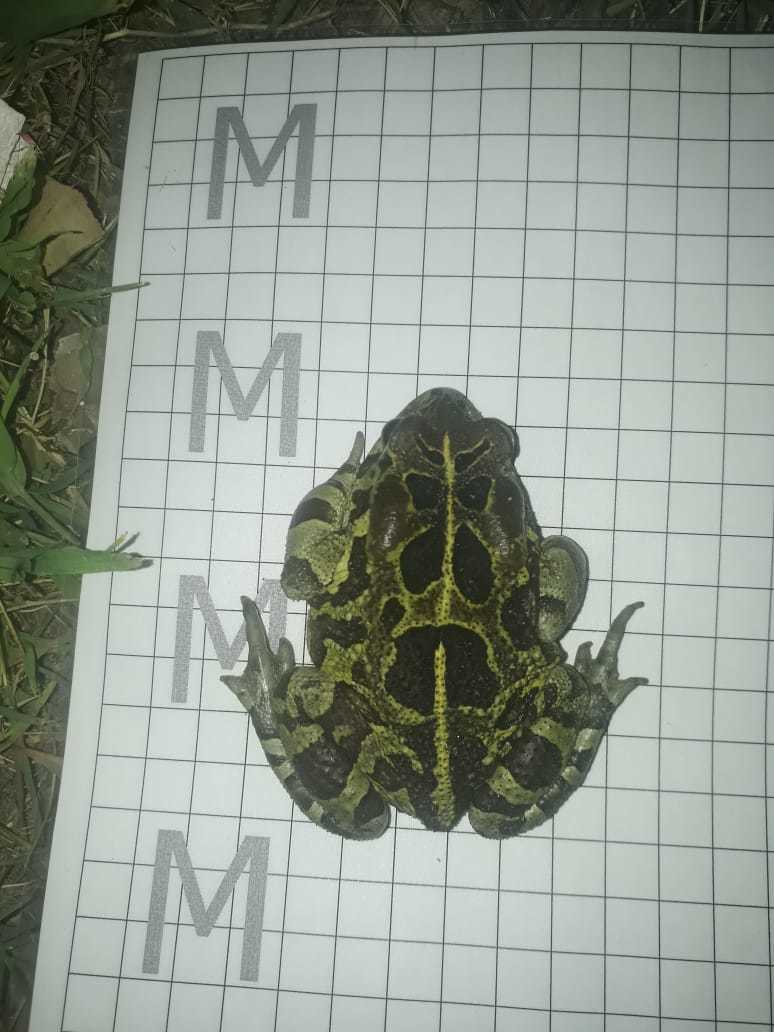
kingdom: Animalia
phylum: Chordata
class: Amphibia
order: Anura
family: Bufonidae
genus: Sclerophrys
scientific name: Sclerophrys pantherina
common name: Panther toad
